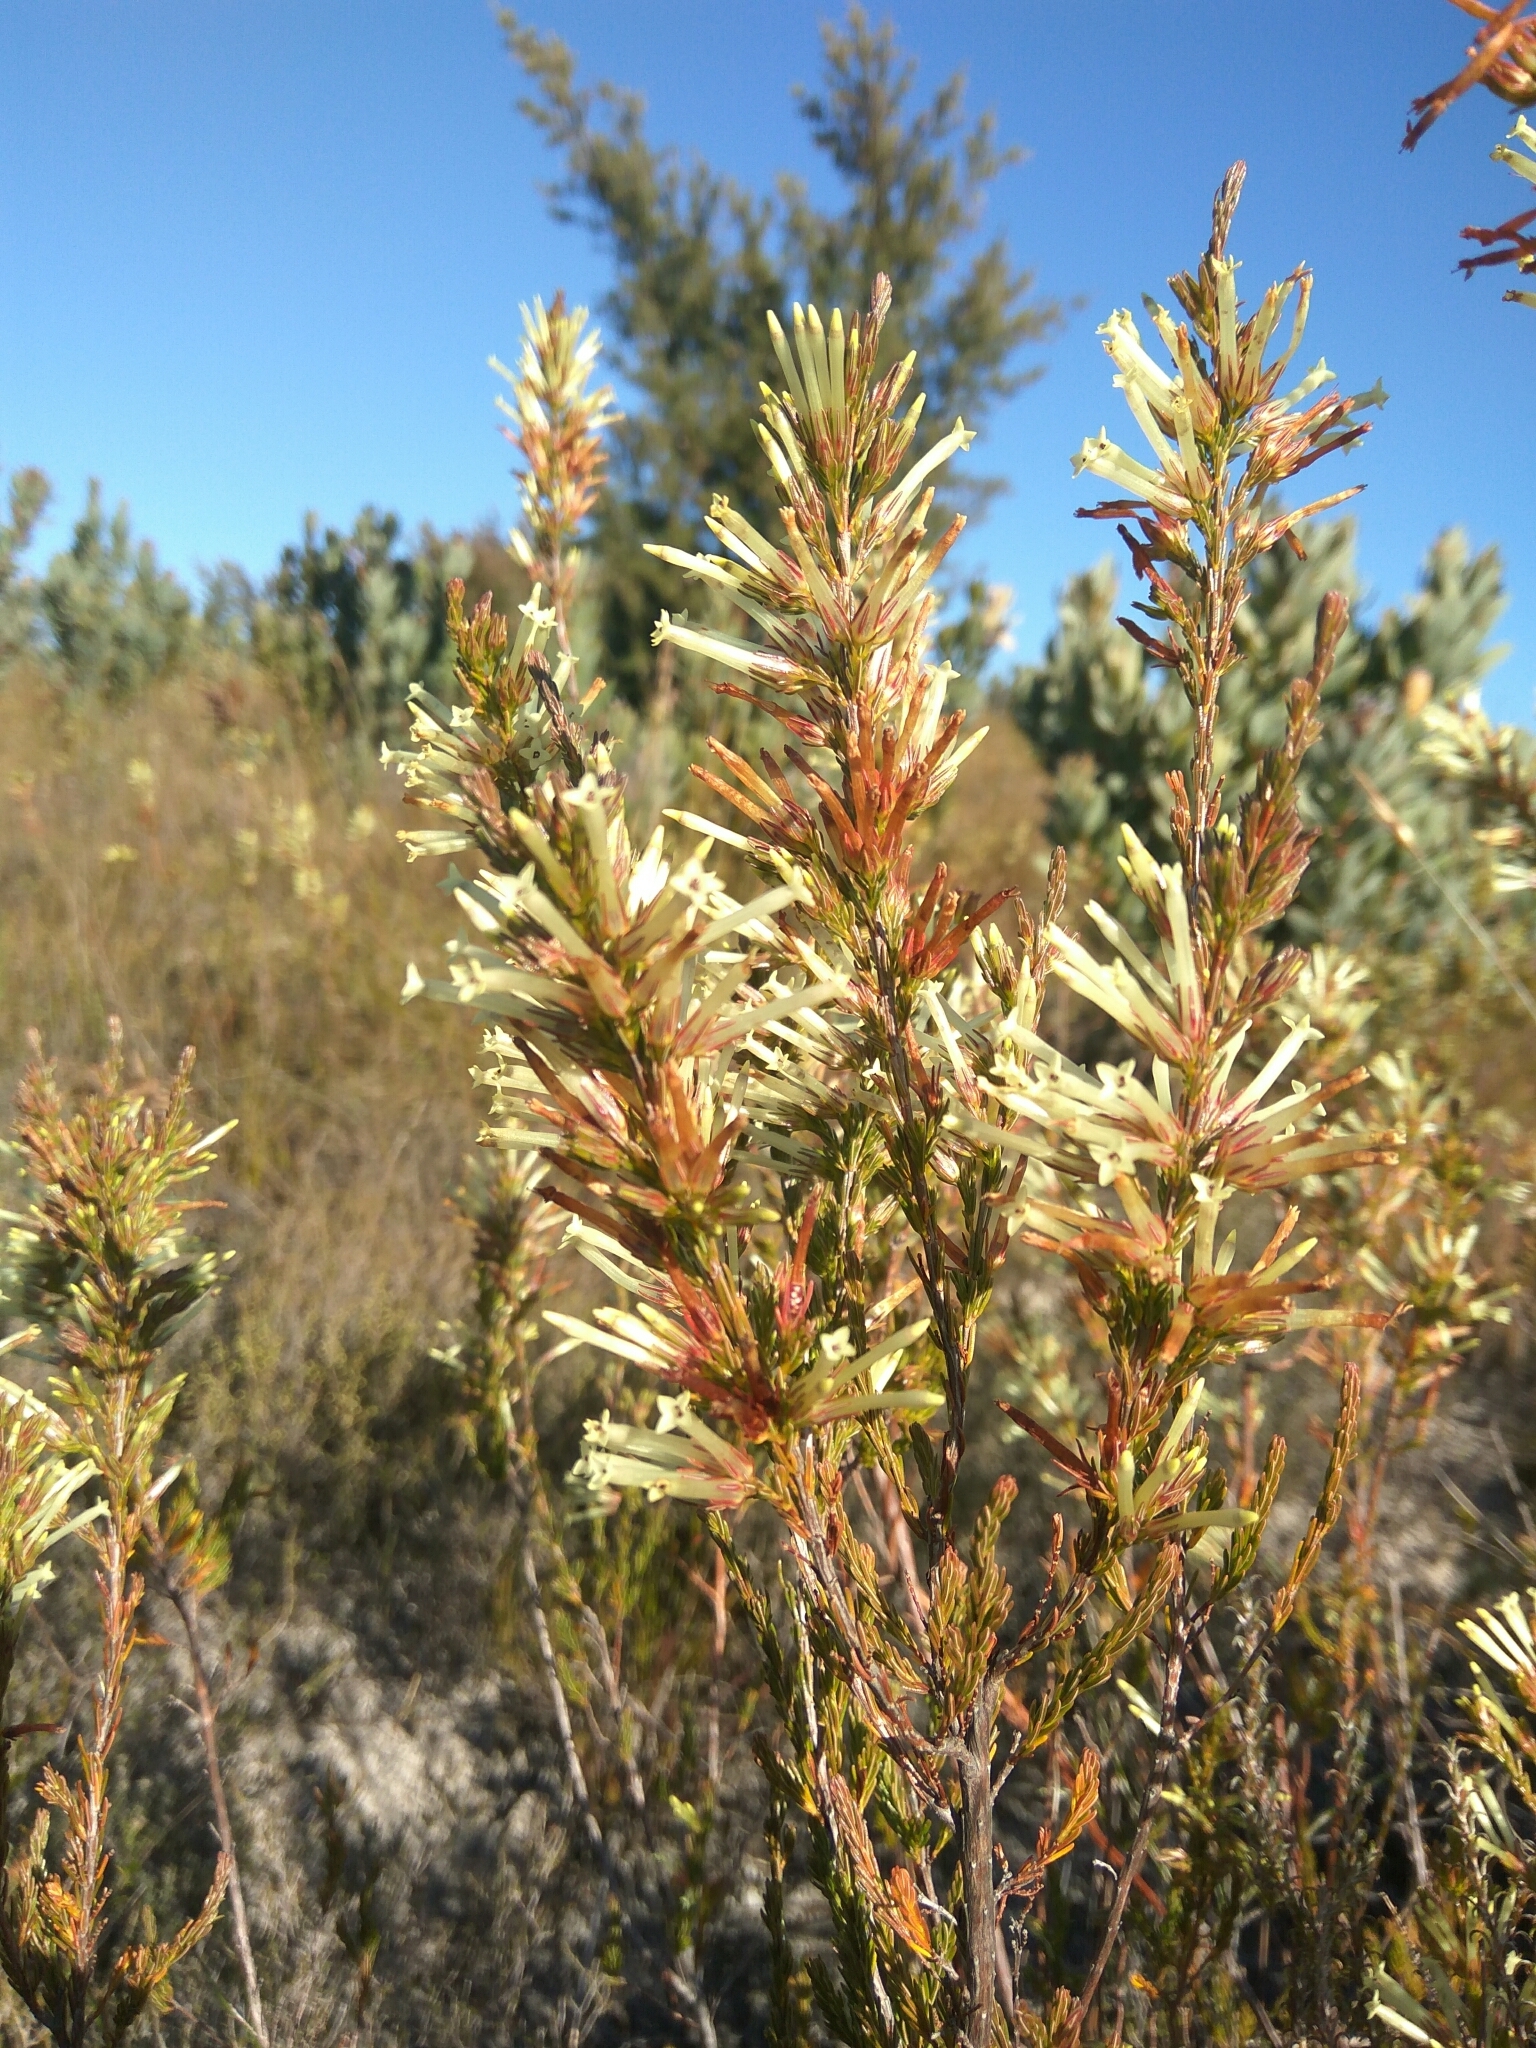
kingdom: Plantae
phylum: Tracheophyta
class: Magnoliopsida
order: Ericales
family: Ericaceae
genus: Erica
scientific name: Erica cylindrica
